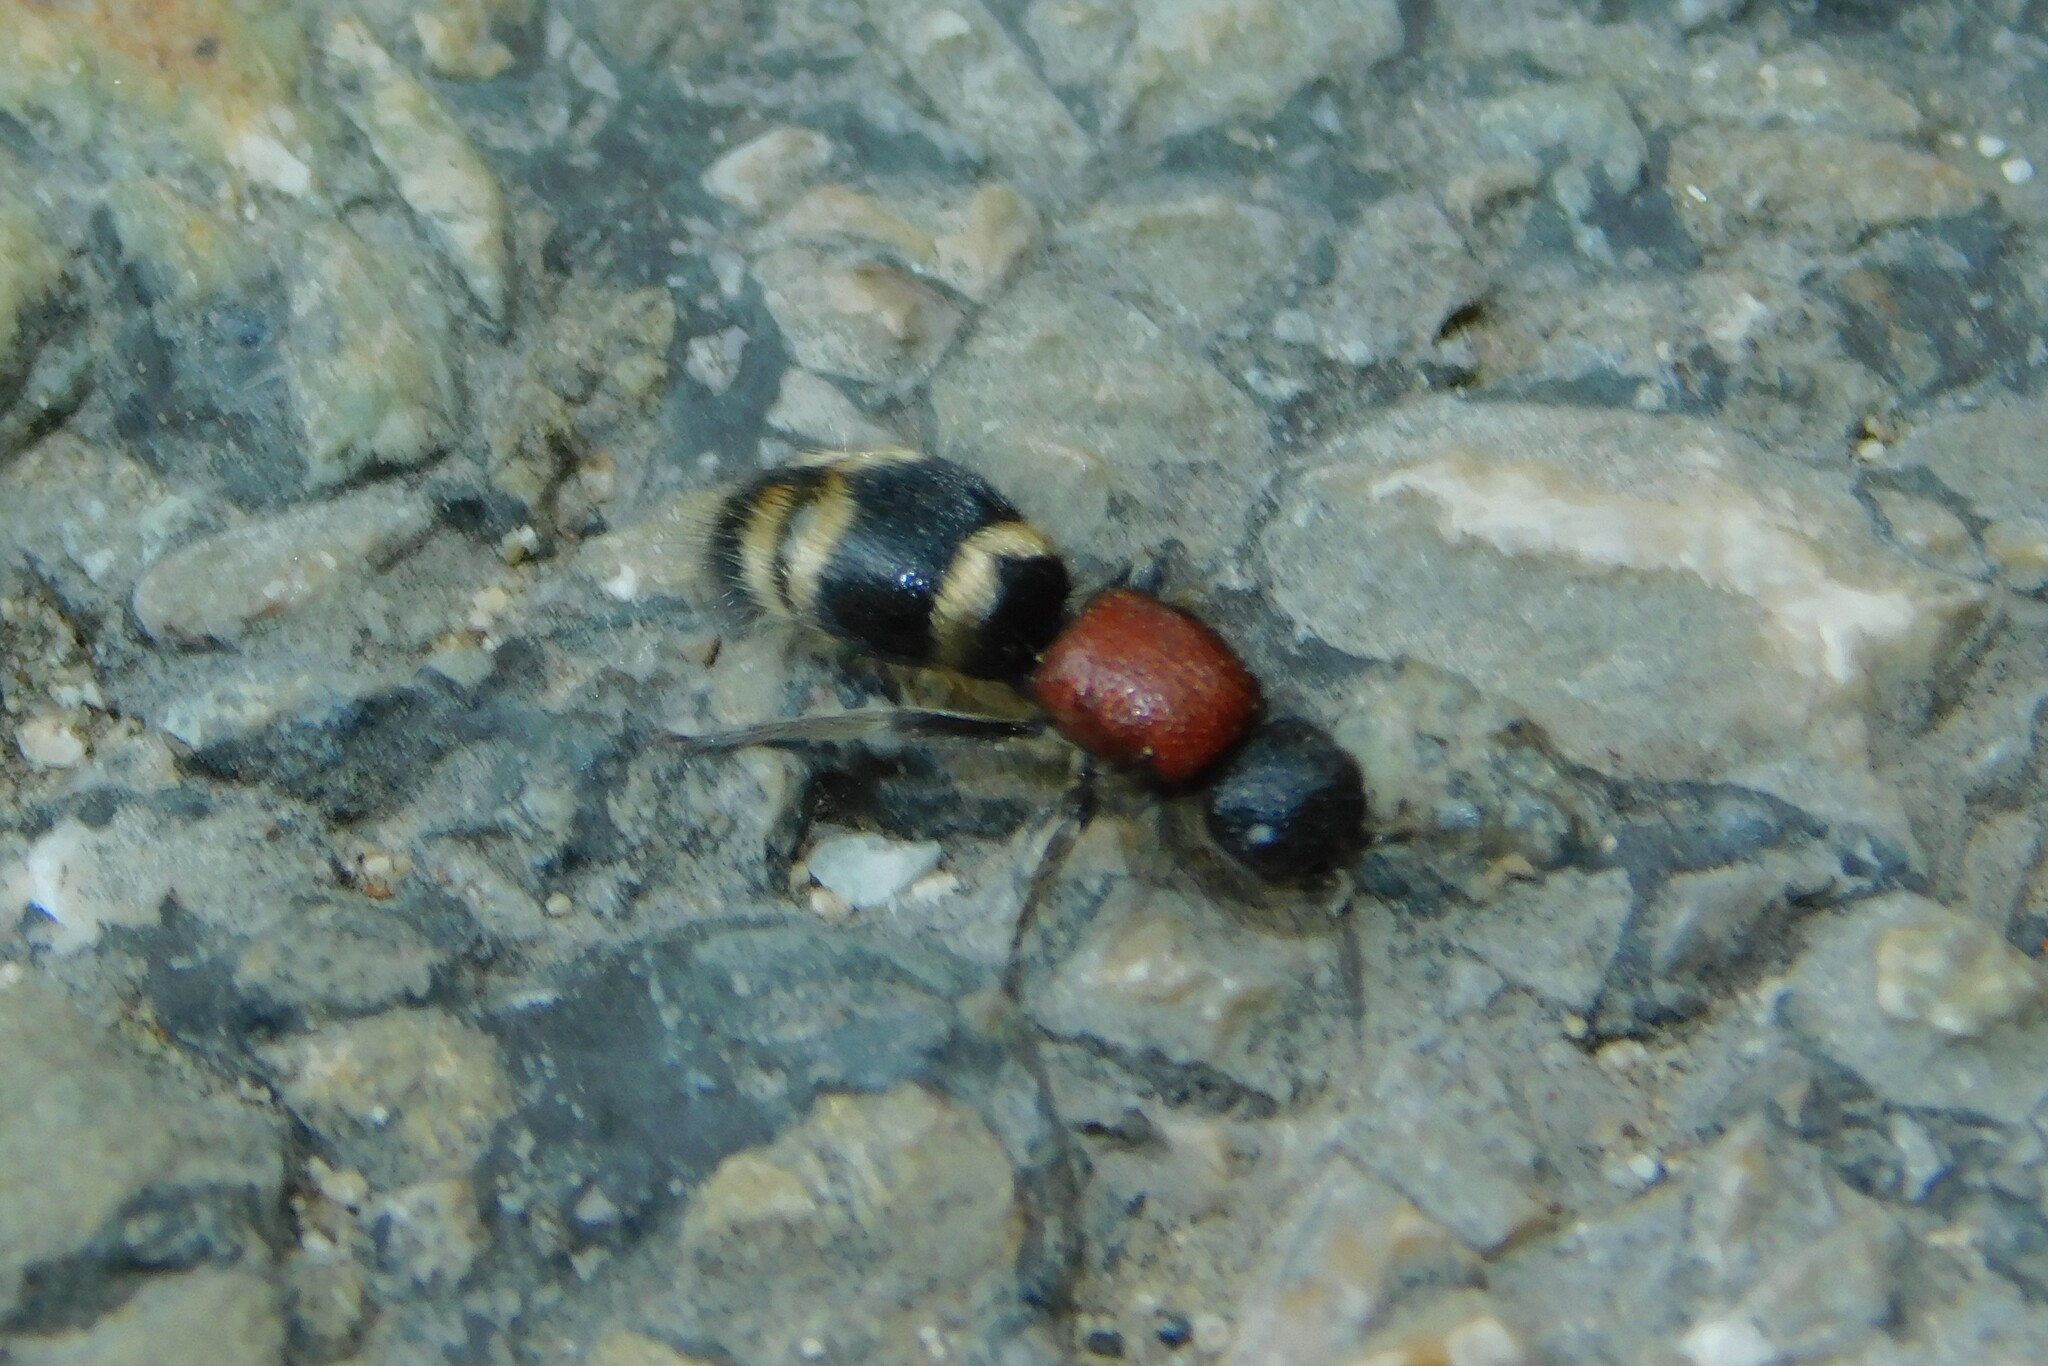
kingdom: Animalia
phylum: Arthropoda
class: Insecta
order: Hymenoptera
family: Mutillidae
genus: Mutilla
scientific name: Mutilla europaea
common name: Large velvet ant
